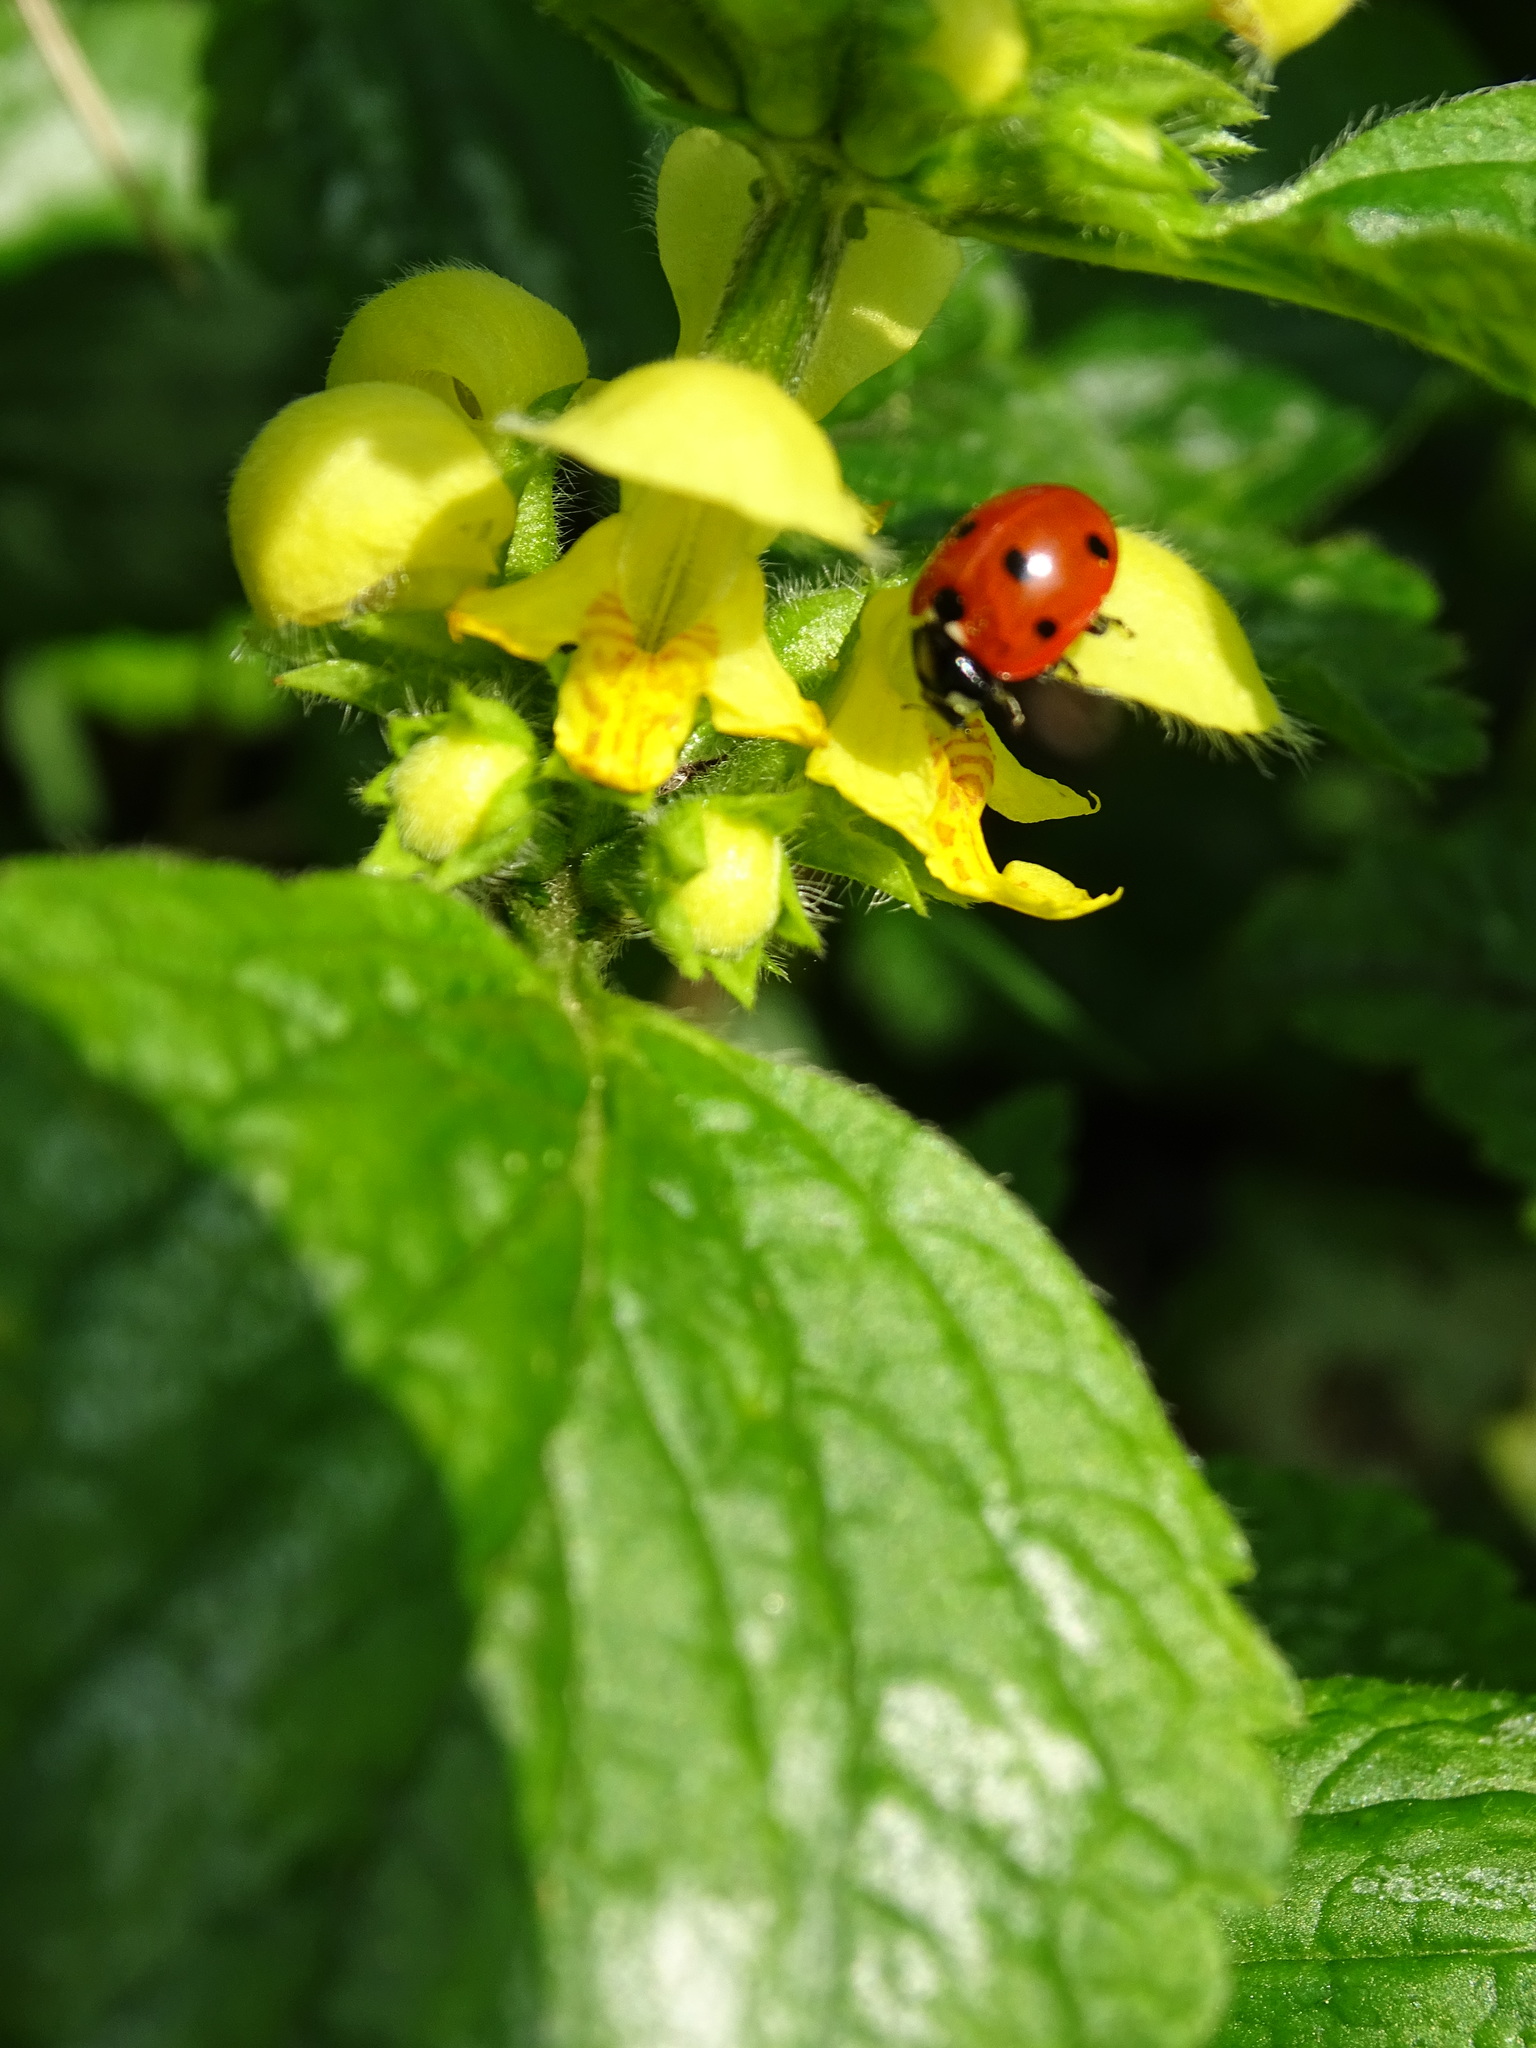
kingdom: Animalia
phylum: Arthropoda
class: Insecta
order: Coleoptera
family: Coccinellidae
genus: Coccinella
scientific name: Coccinella septempunctata
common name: Sevenspotted lady beetle
